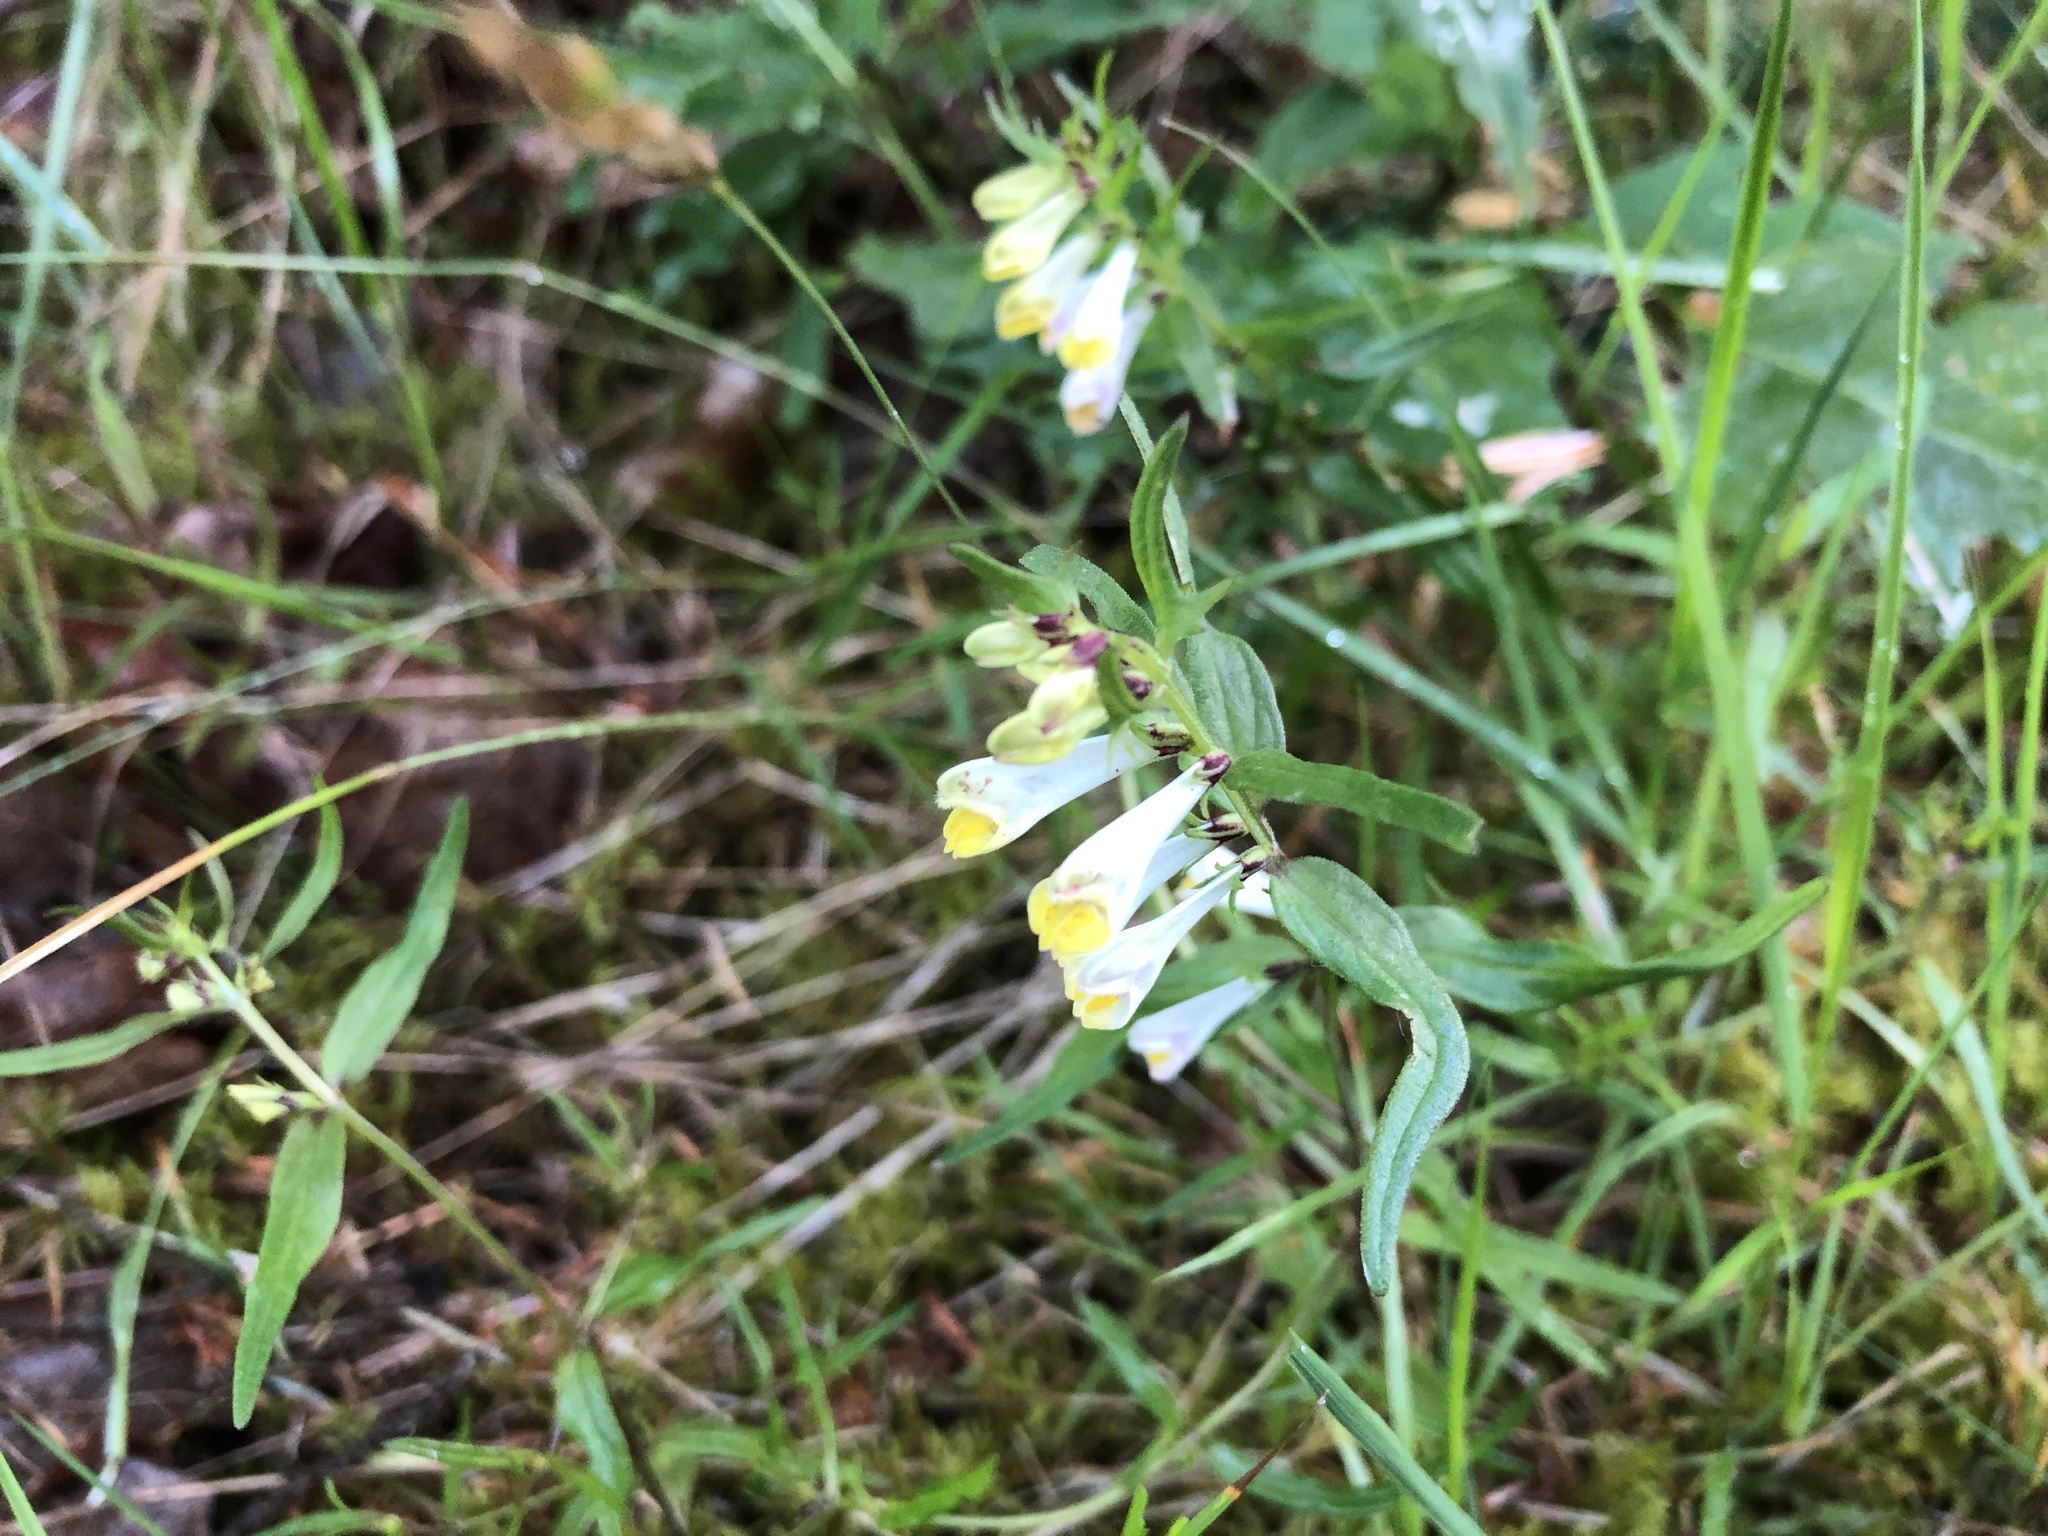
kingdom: Plantae
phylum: Tracheophyta
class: Magnoliopsida
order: Lamiales
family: Orobanchaceae
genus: Melampyrum
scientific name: Melampyrum pratense
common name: Common cow-wheat
